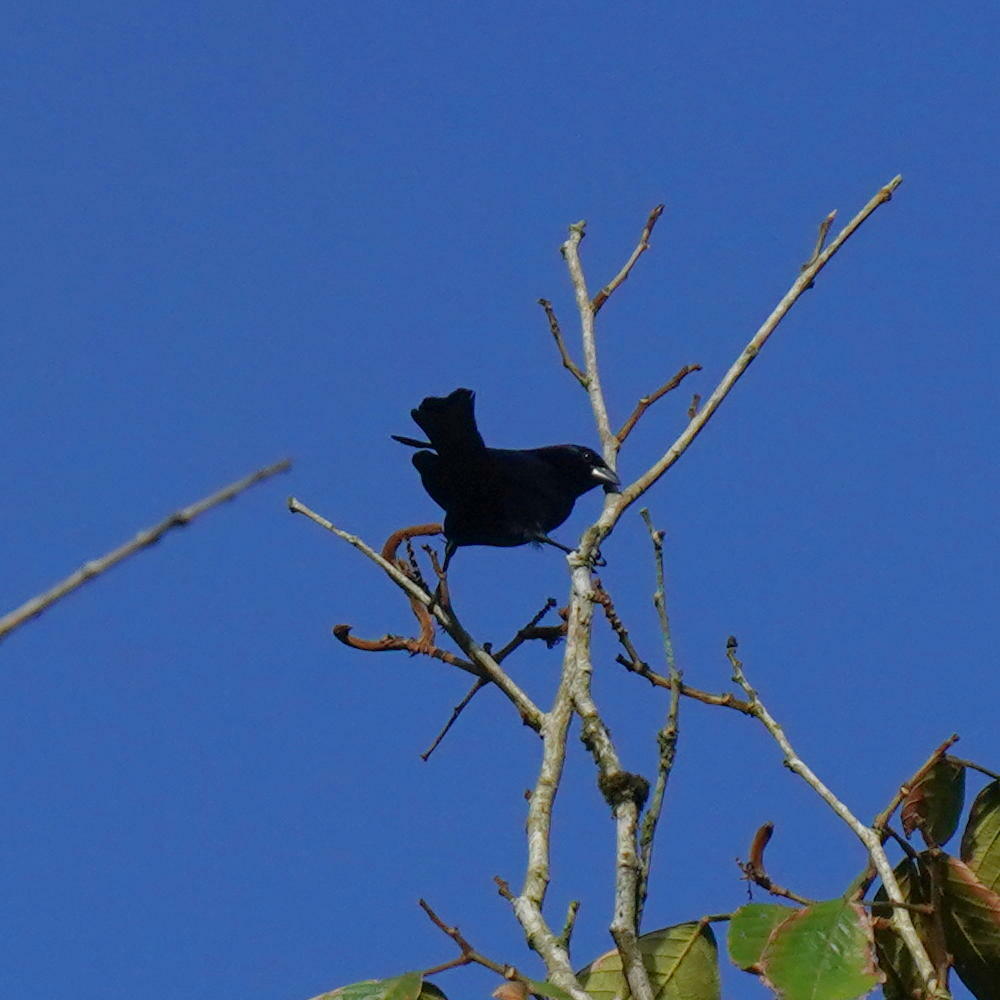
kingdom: Animalia
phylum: Chordata
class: Aves
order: Passeriformes
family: Icteridae
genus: Molothrus
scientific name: Molothrus bonariensis
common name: Shiny cowbird
